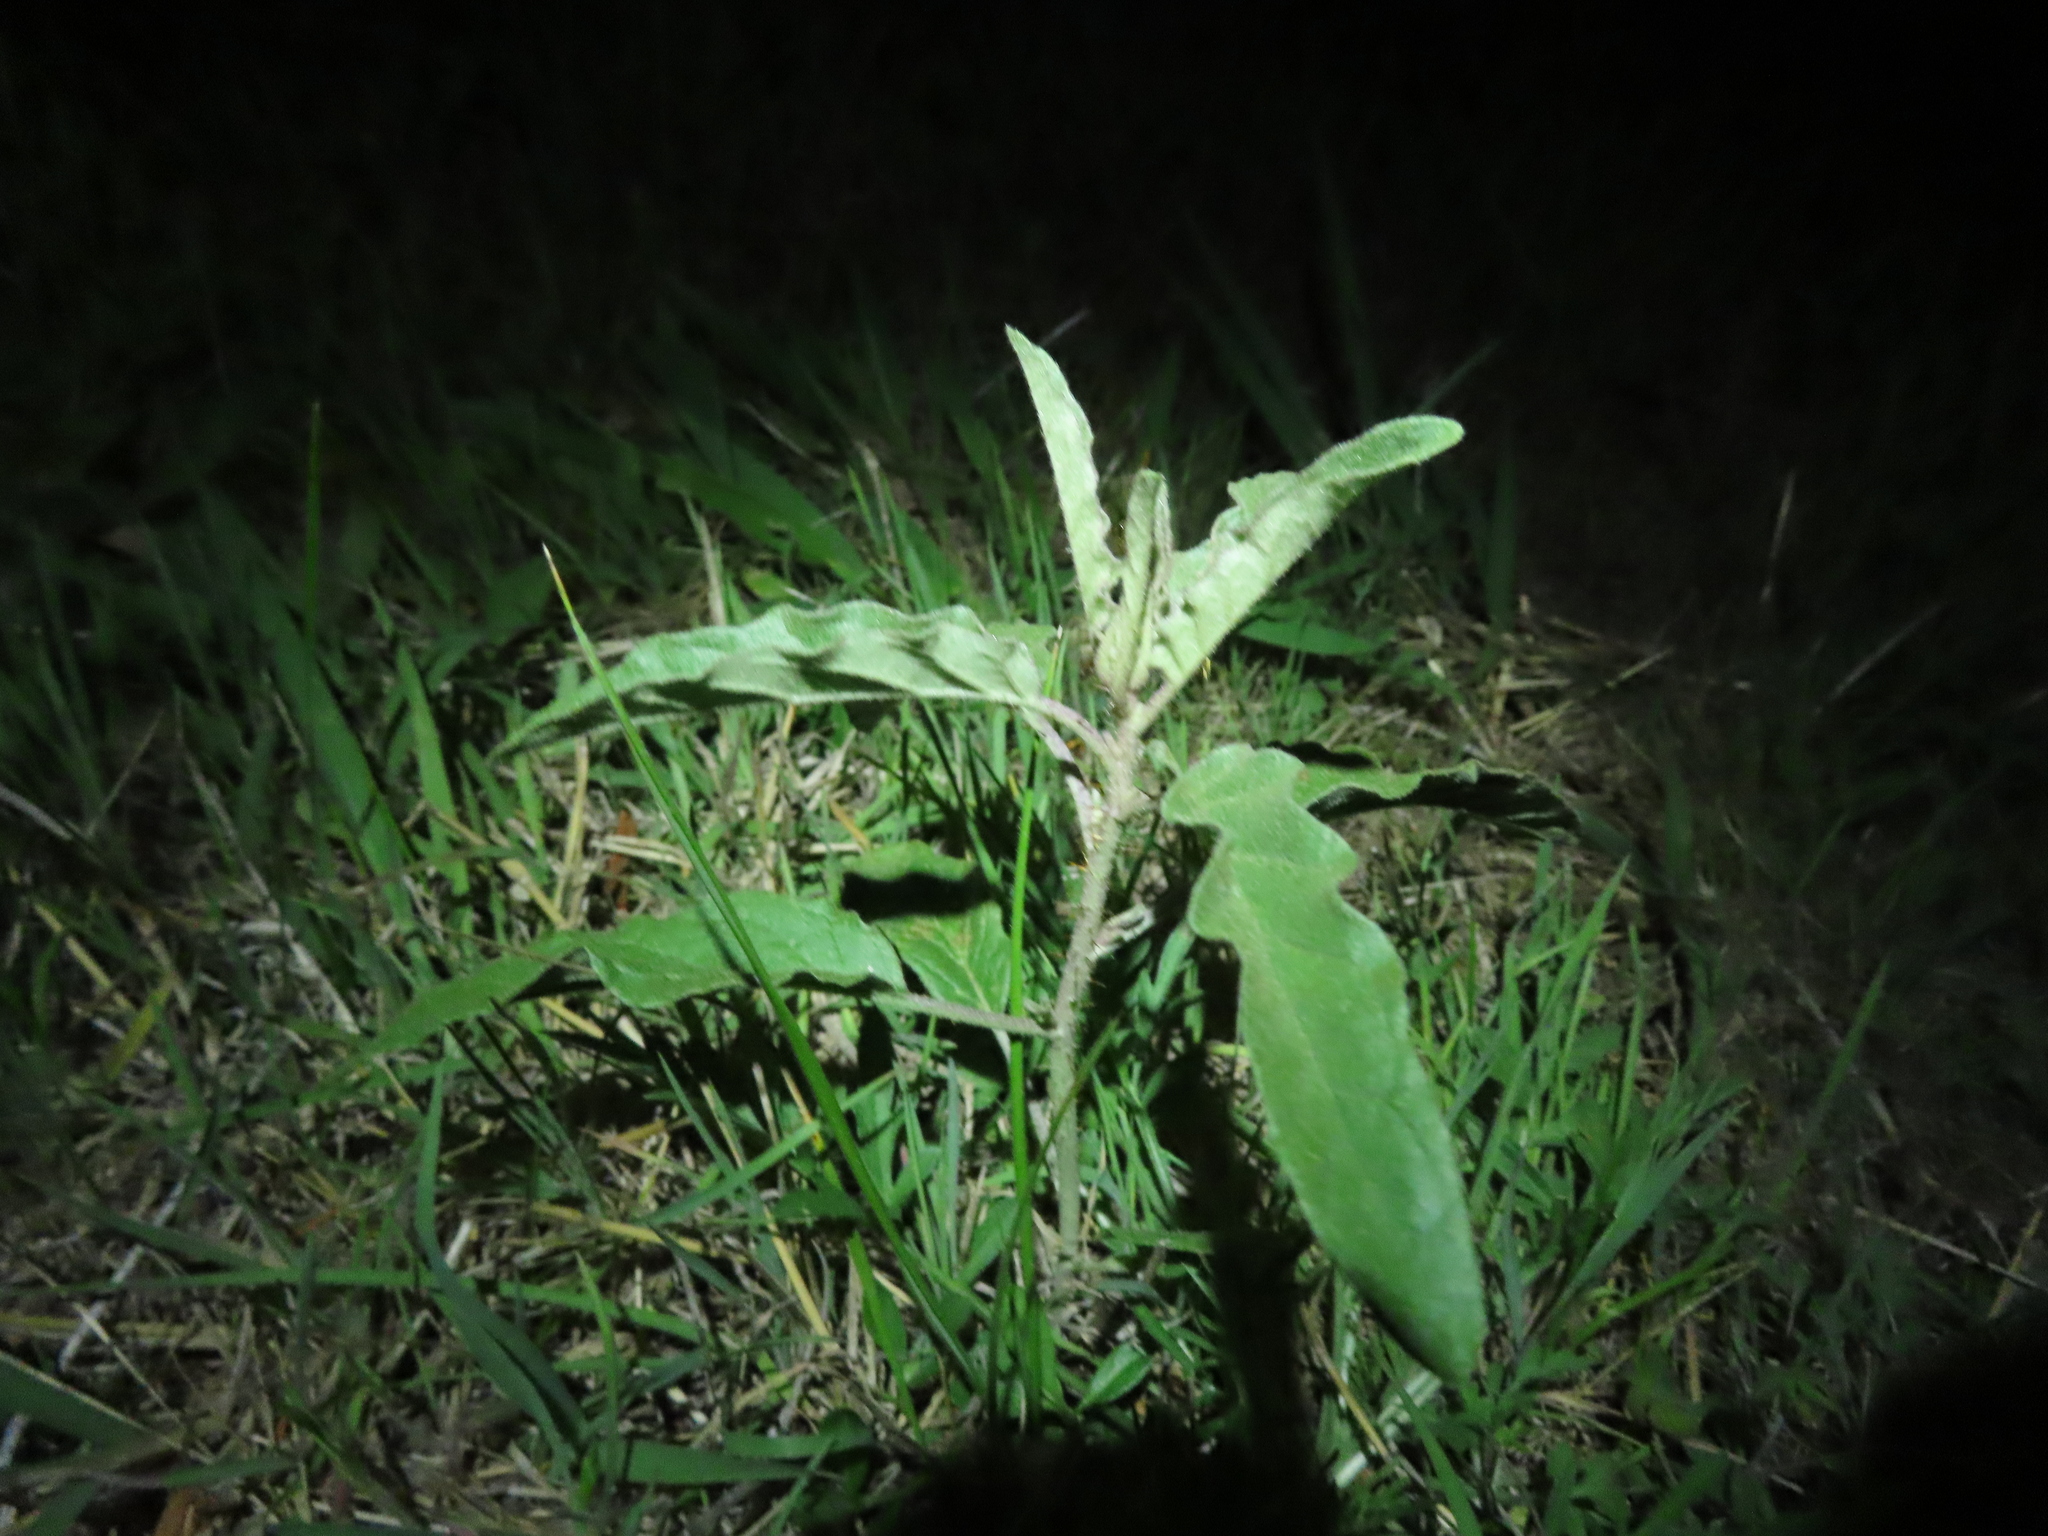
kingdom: Plantae
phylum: Tracheophyta
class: Magnoliopsida
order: Solanales
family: Solanaceae
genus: Solanum
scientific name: Solanum elaeagnifolium
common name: Silverleaf nightshade
